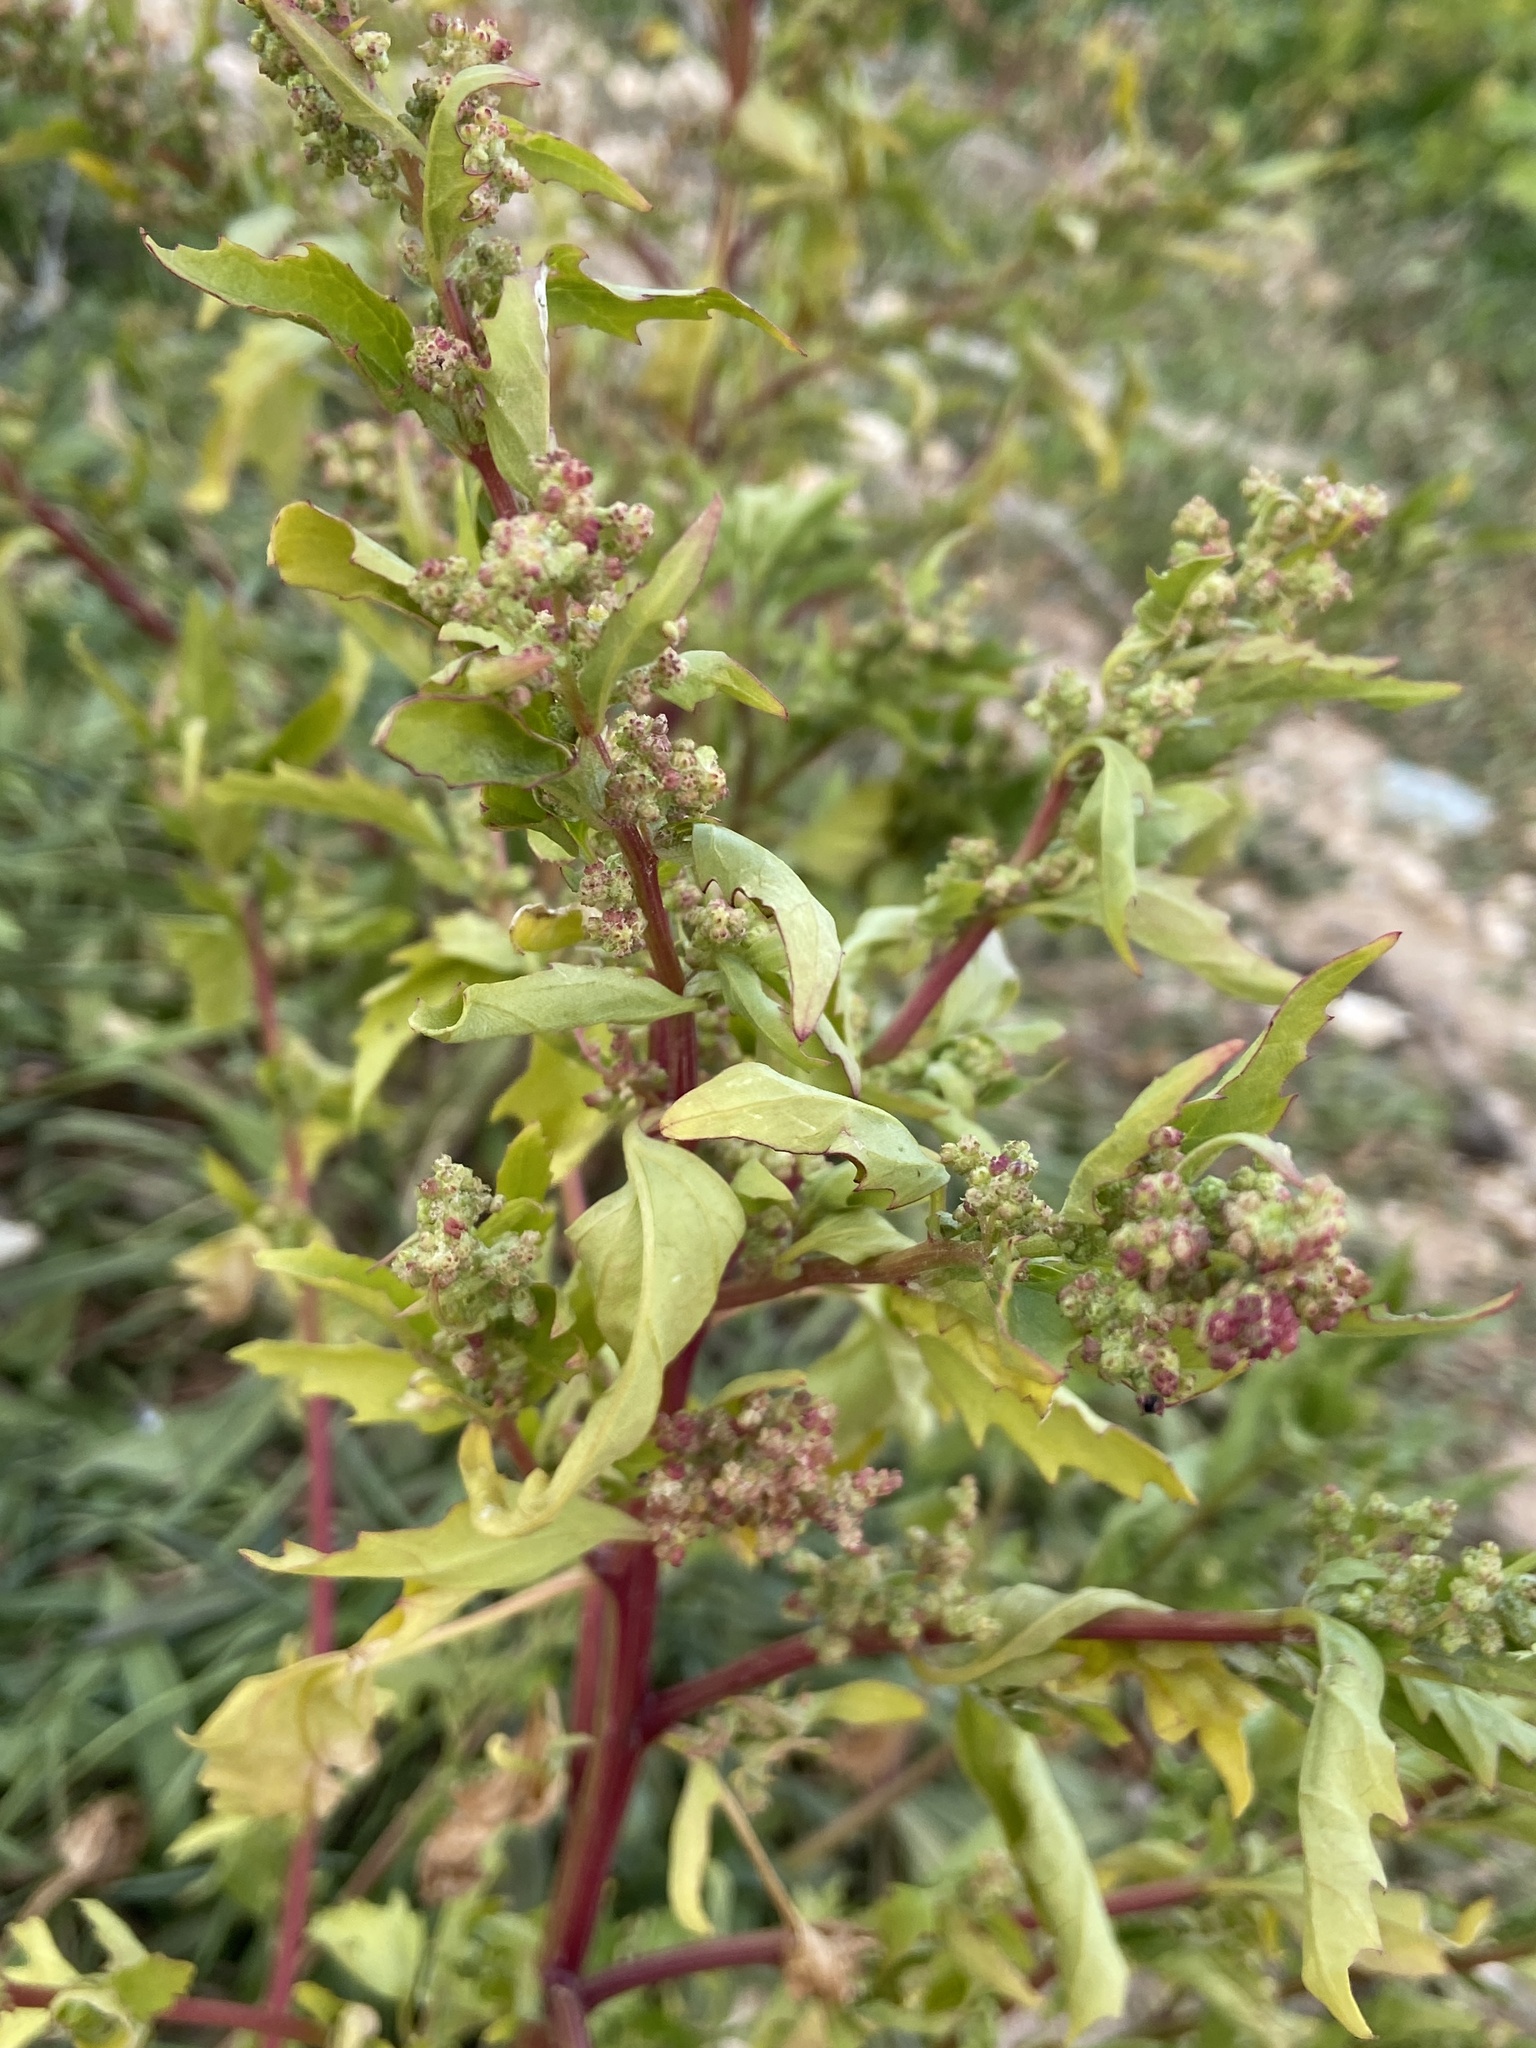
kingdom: Plantae
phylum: Tracheophyta
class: Magnoliopsida
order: Caryophyllales
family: Amaranthaceae
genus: Chenopodiastrum
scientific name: Chenopodiastrum murale
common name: Sowbane
